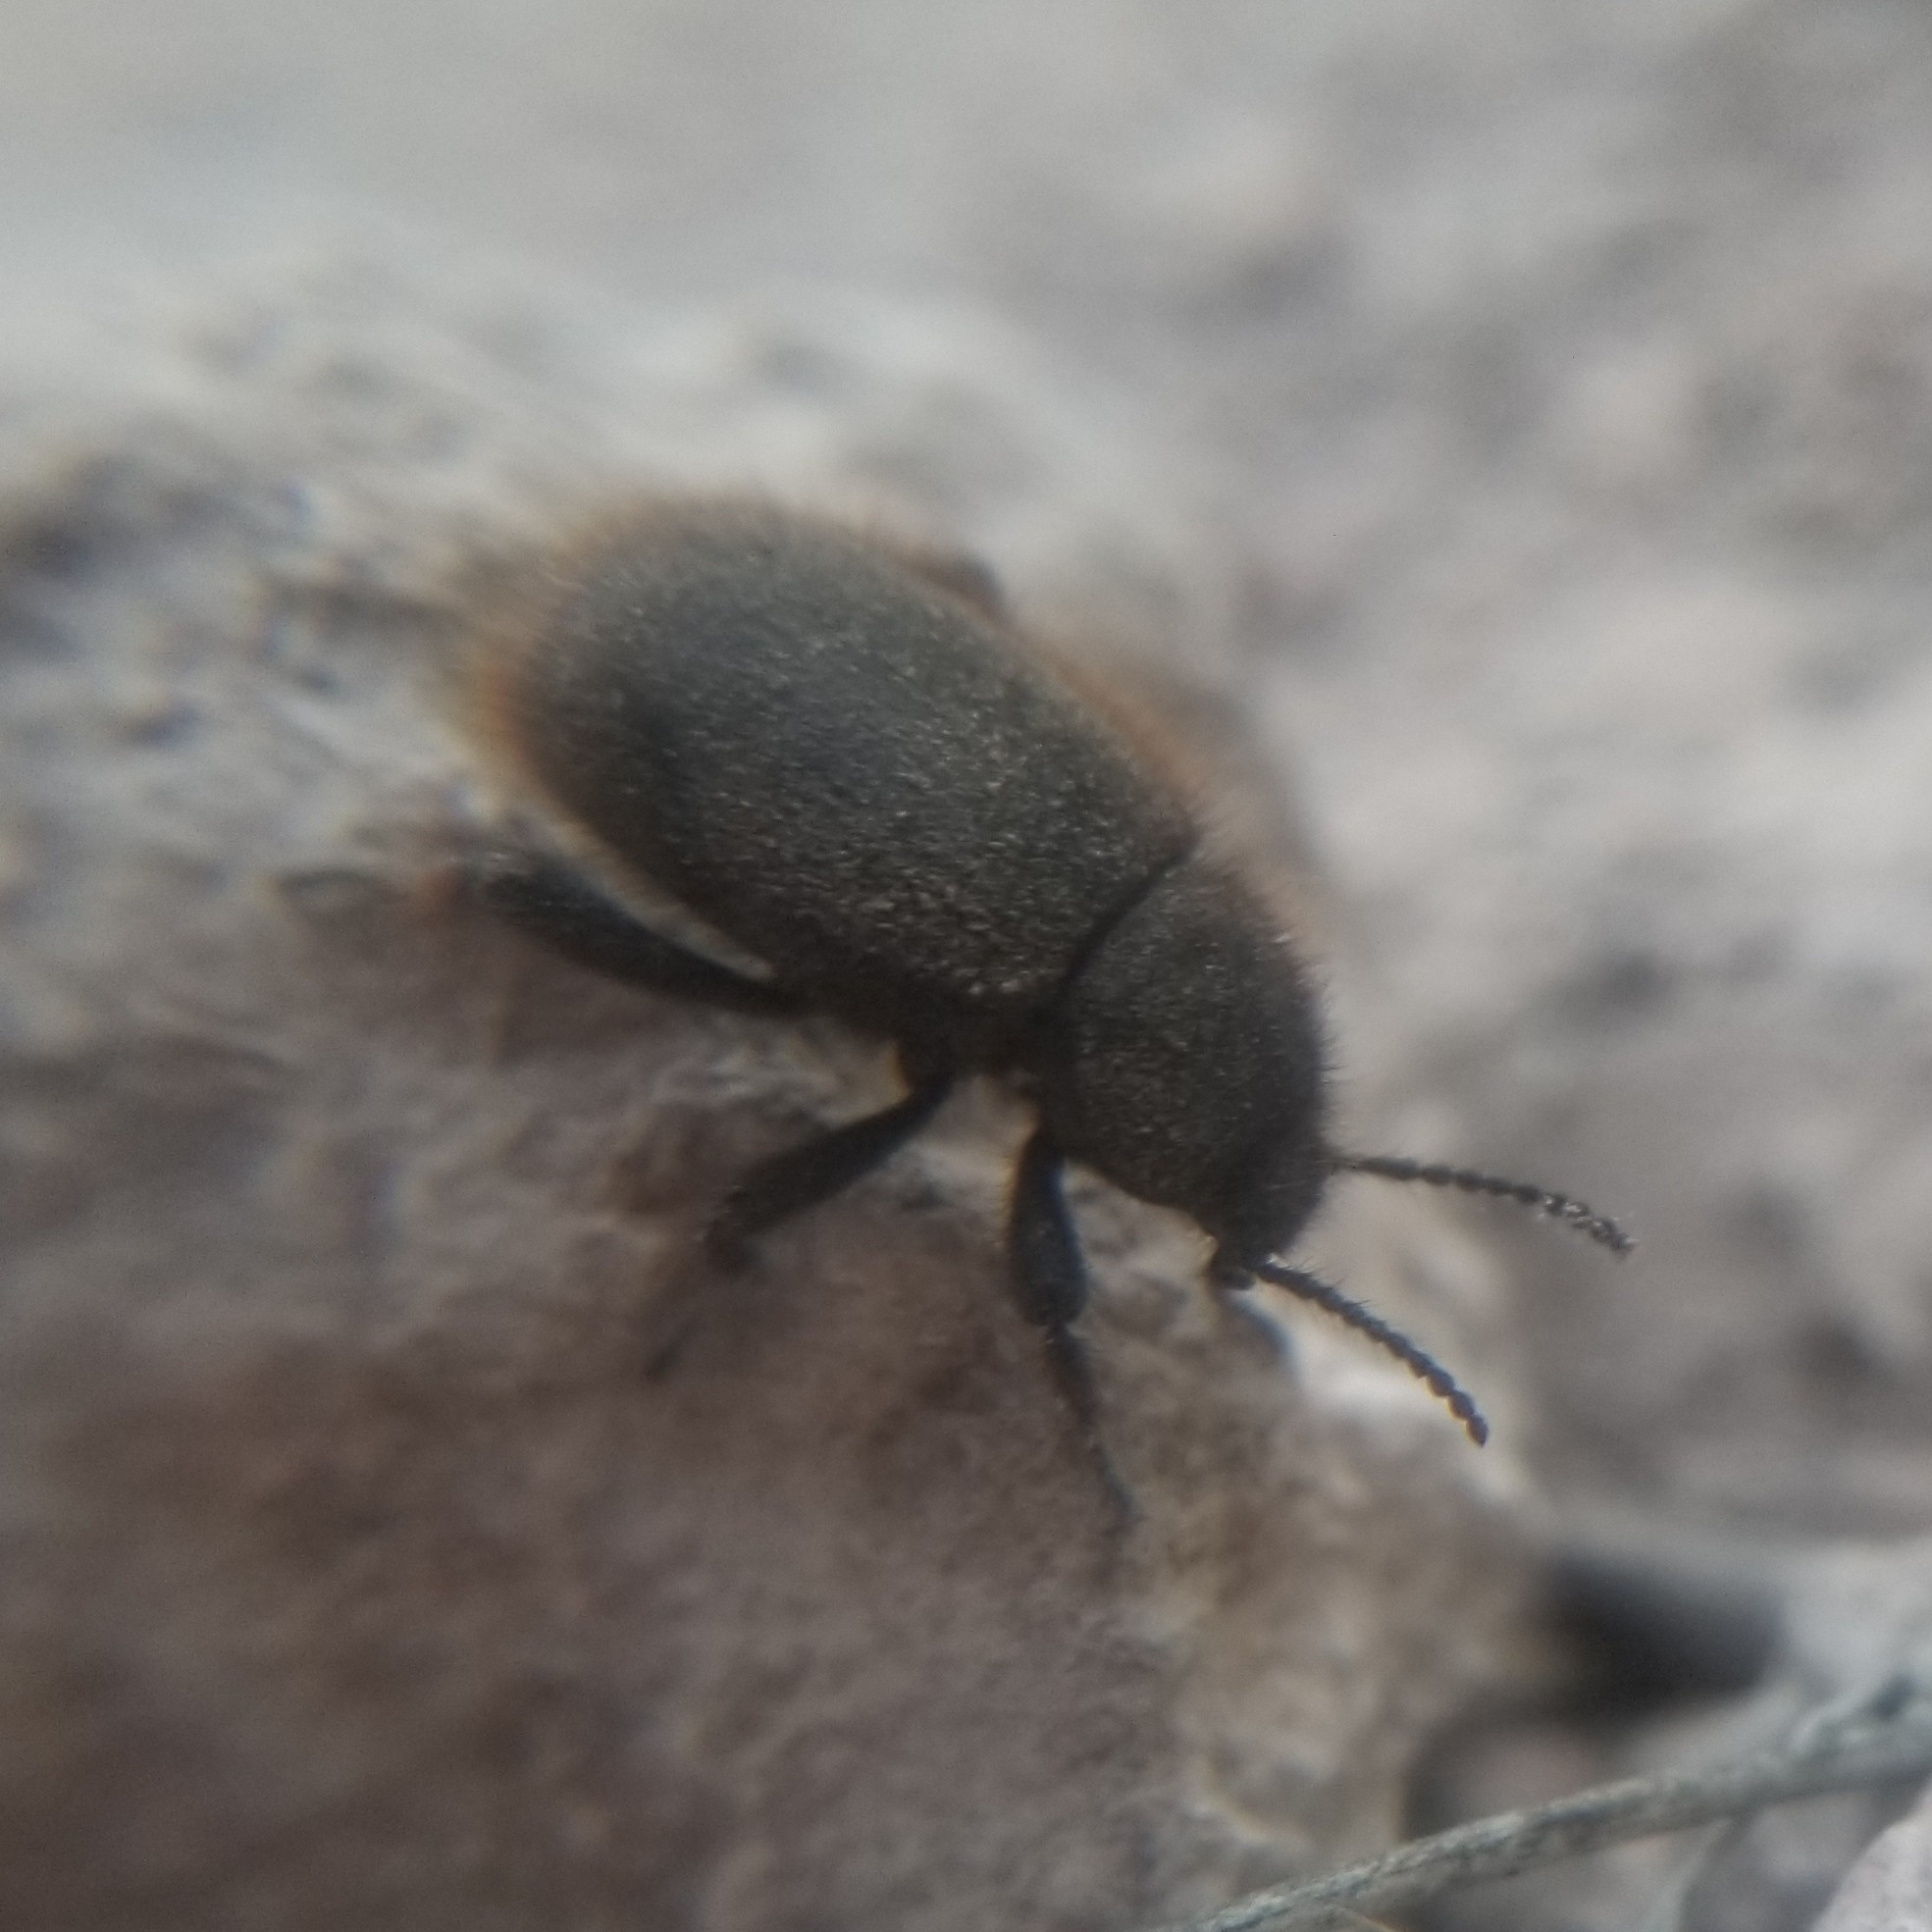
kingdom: Animalia
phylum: Arthropoda
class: Insecta
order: Coleoptera
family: Tenebrionidae
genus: Eleodes
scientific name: Eleodes osculans
